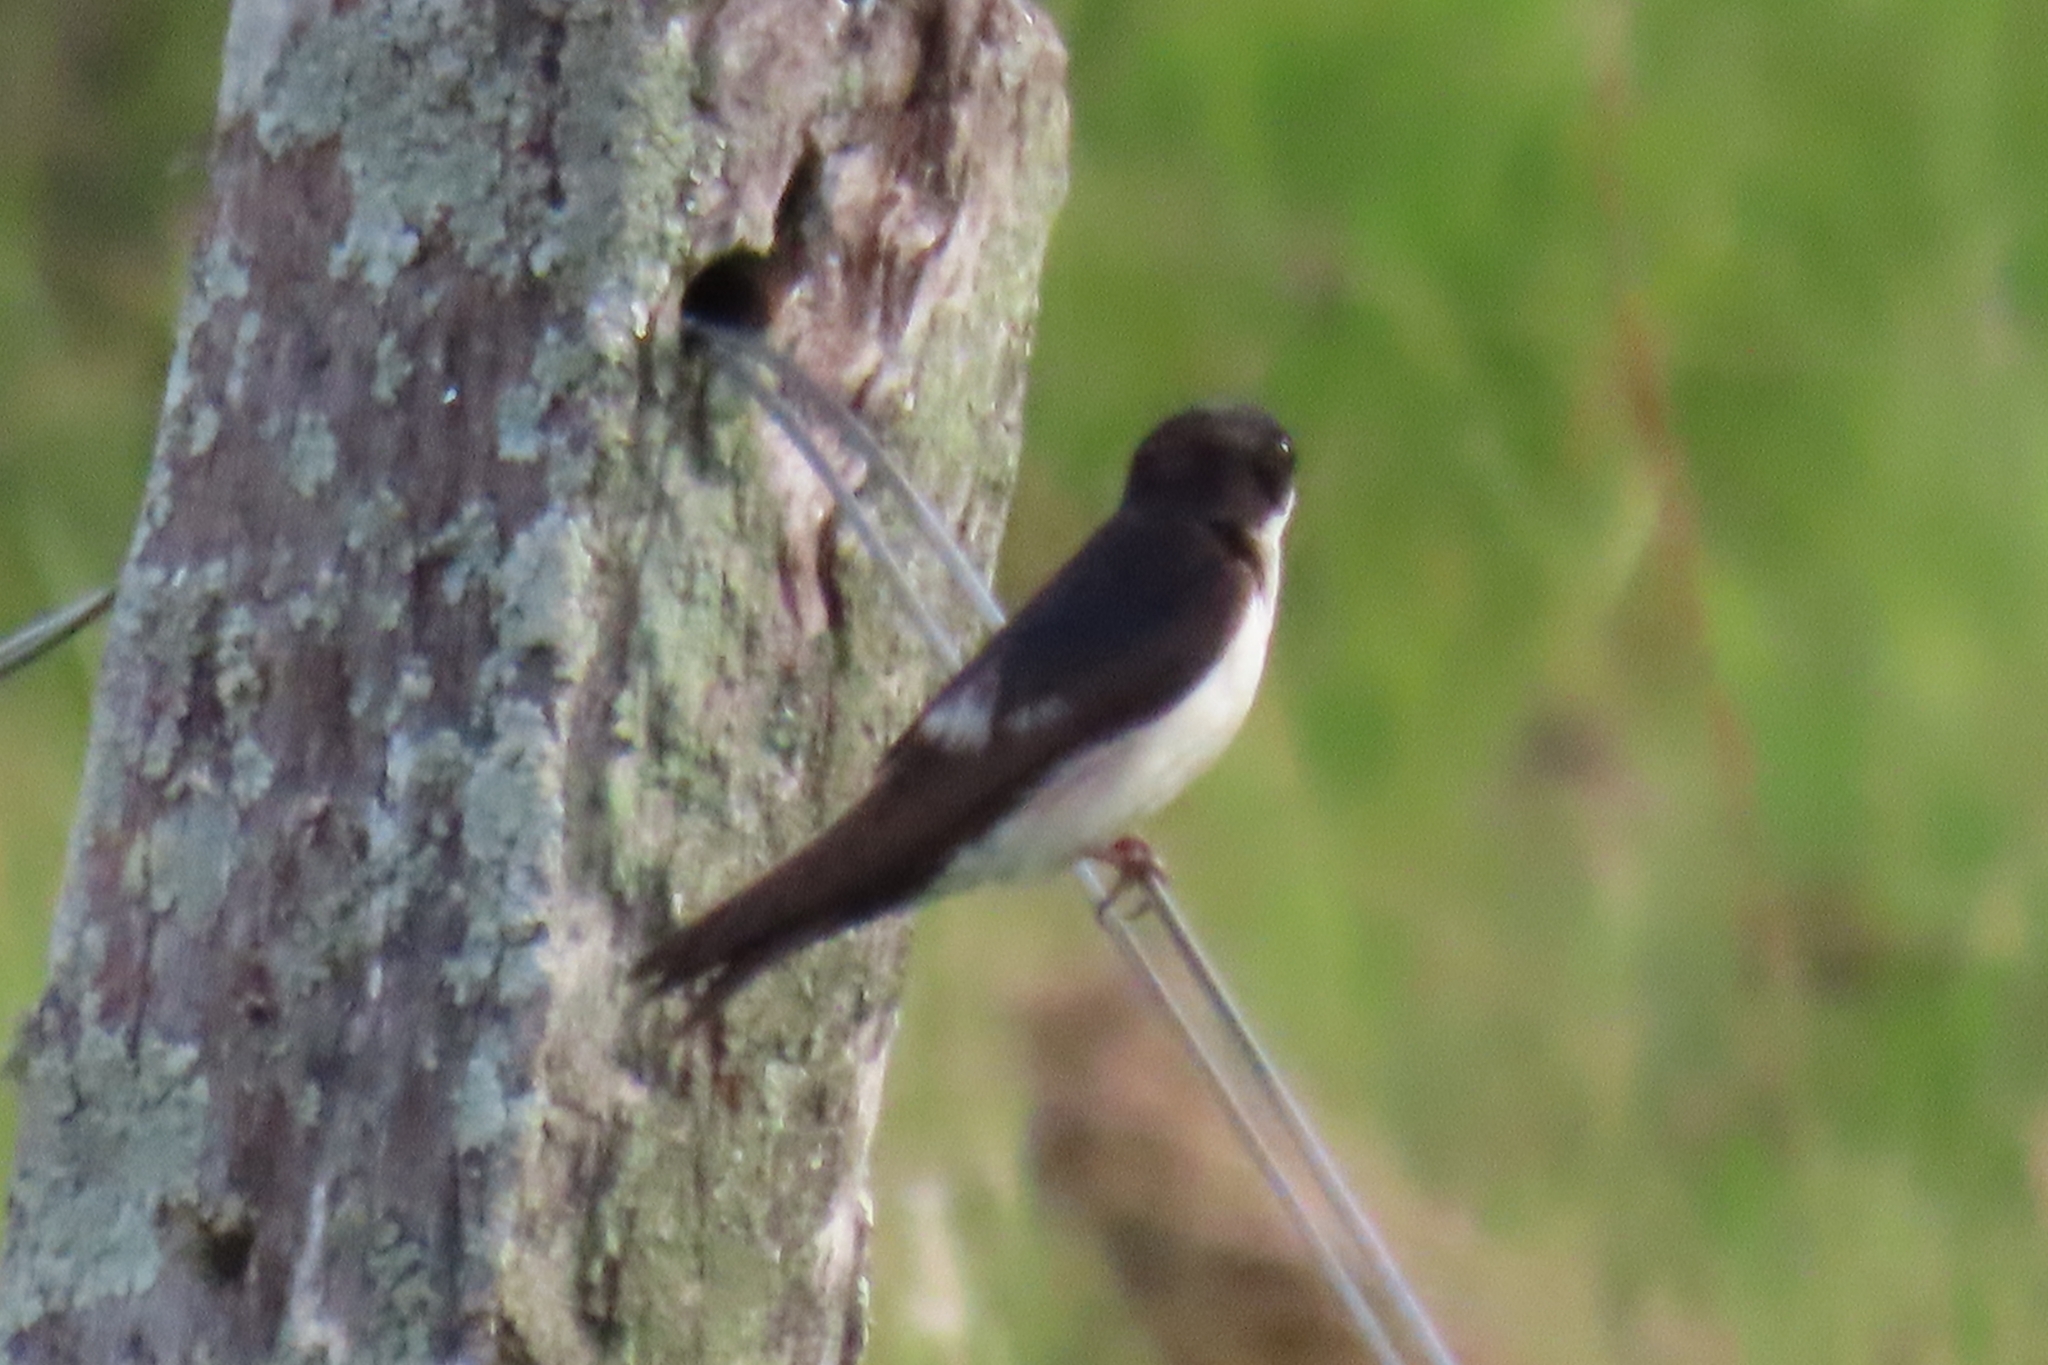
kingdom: Animalia
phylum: Chordata
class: Aves
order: Passeriformes
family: Hirundinidae
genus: Notiochelidon
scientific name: Notiochelidon cyanoleuca
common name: Blue-and-white swallow
